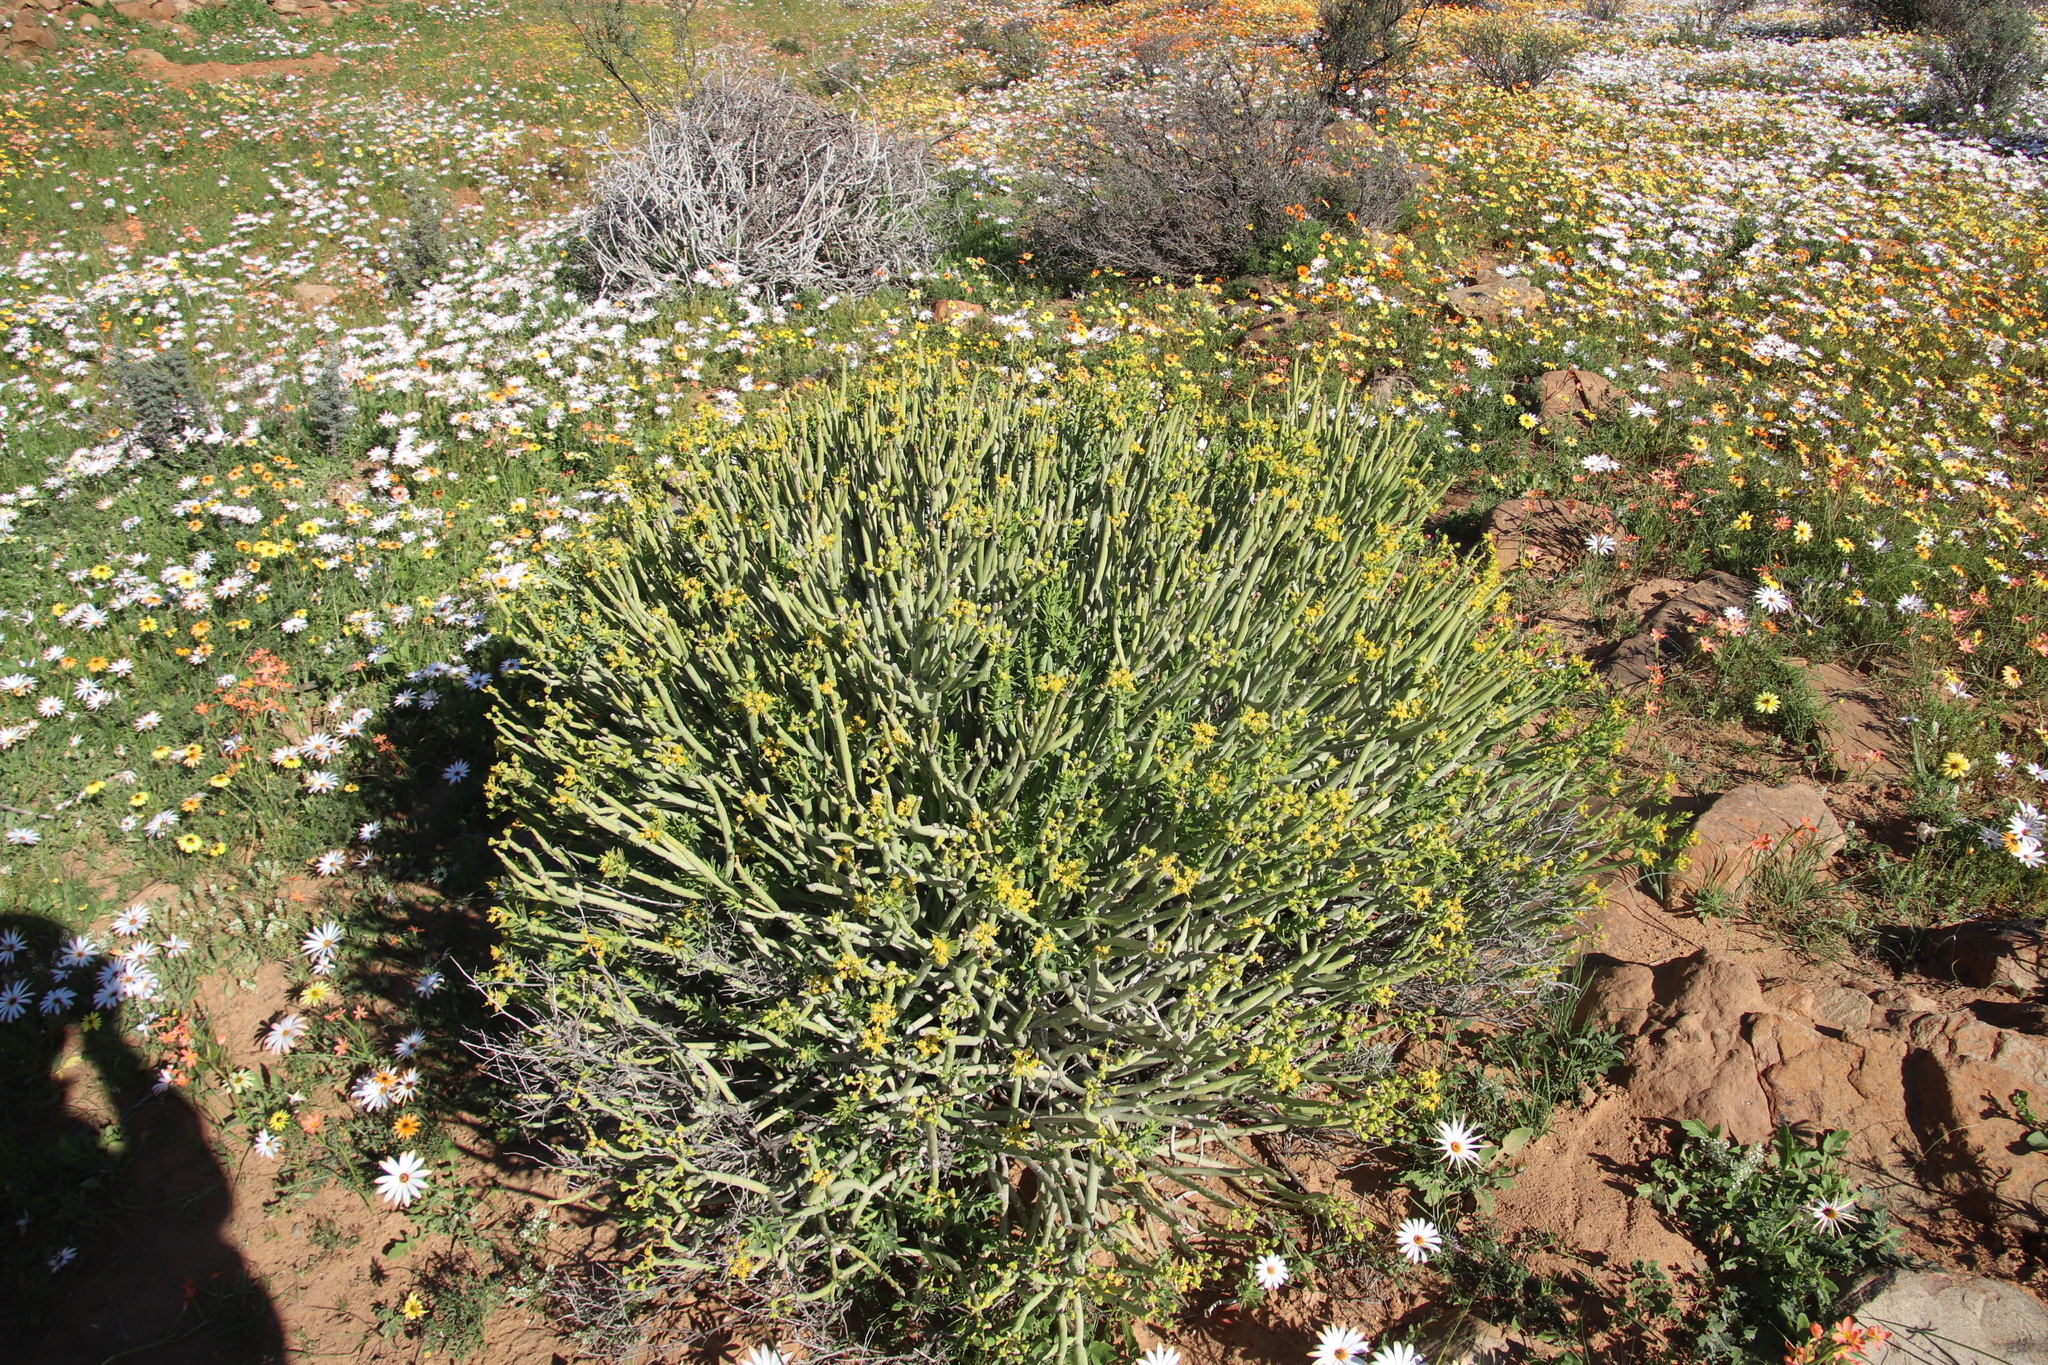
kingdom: Plantae
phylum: Tracheophyta
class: Magnoliopsida
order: Malpighiales
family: Euphorbiaceae
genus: Euphorbia
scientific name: Euphorbia mauritanica
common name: Jackal's-food
